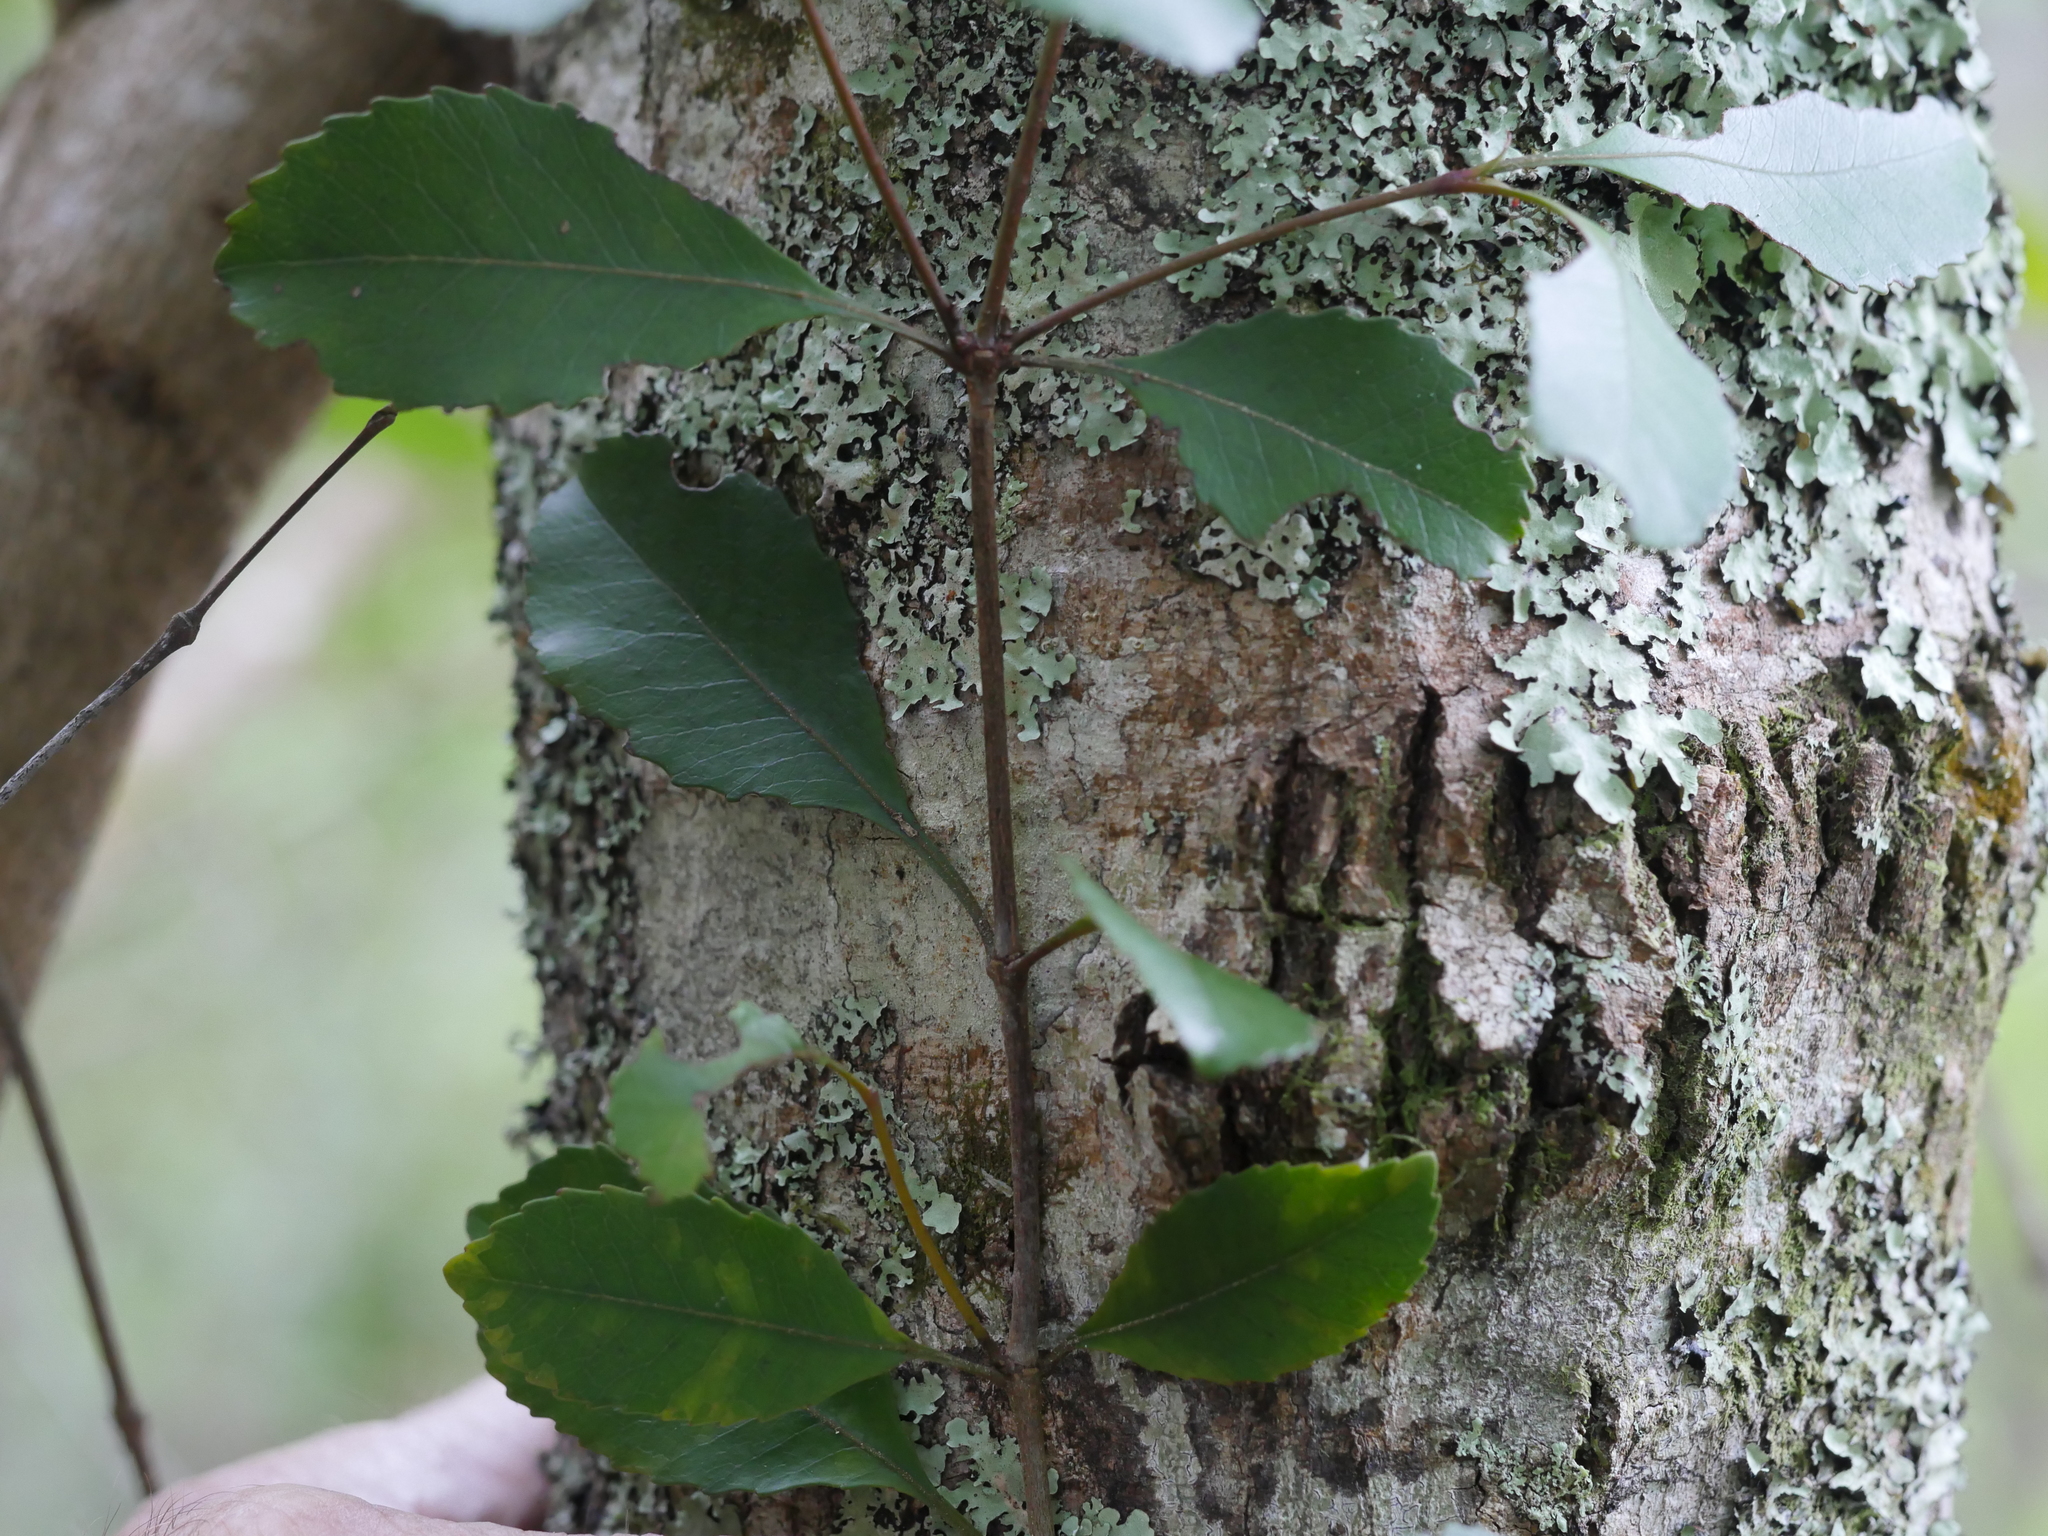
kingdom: Plantae
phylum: Tracheophyta
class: Magnoliopsida
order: Oxalidales
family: Cunoniaceae
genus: Pterophylla
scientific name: Pterophylla racemosa
